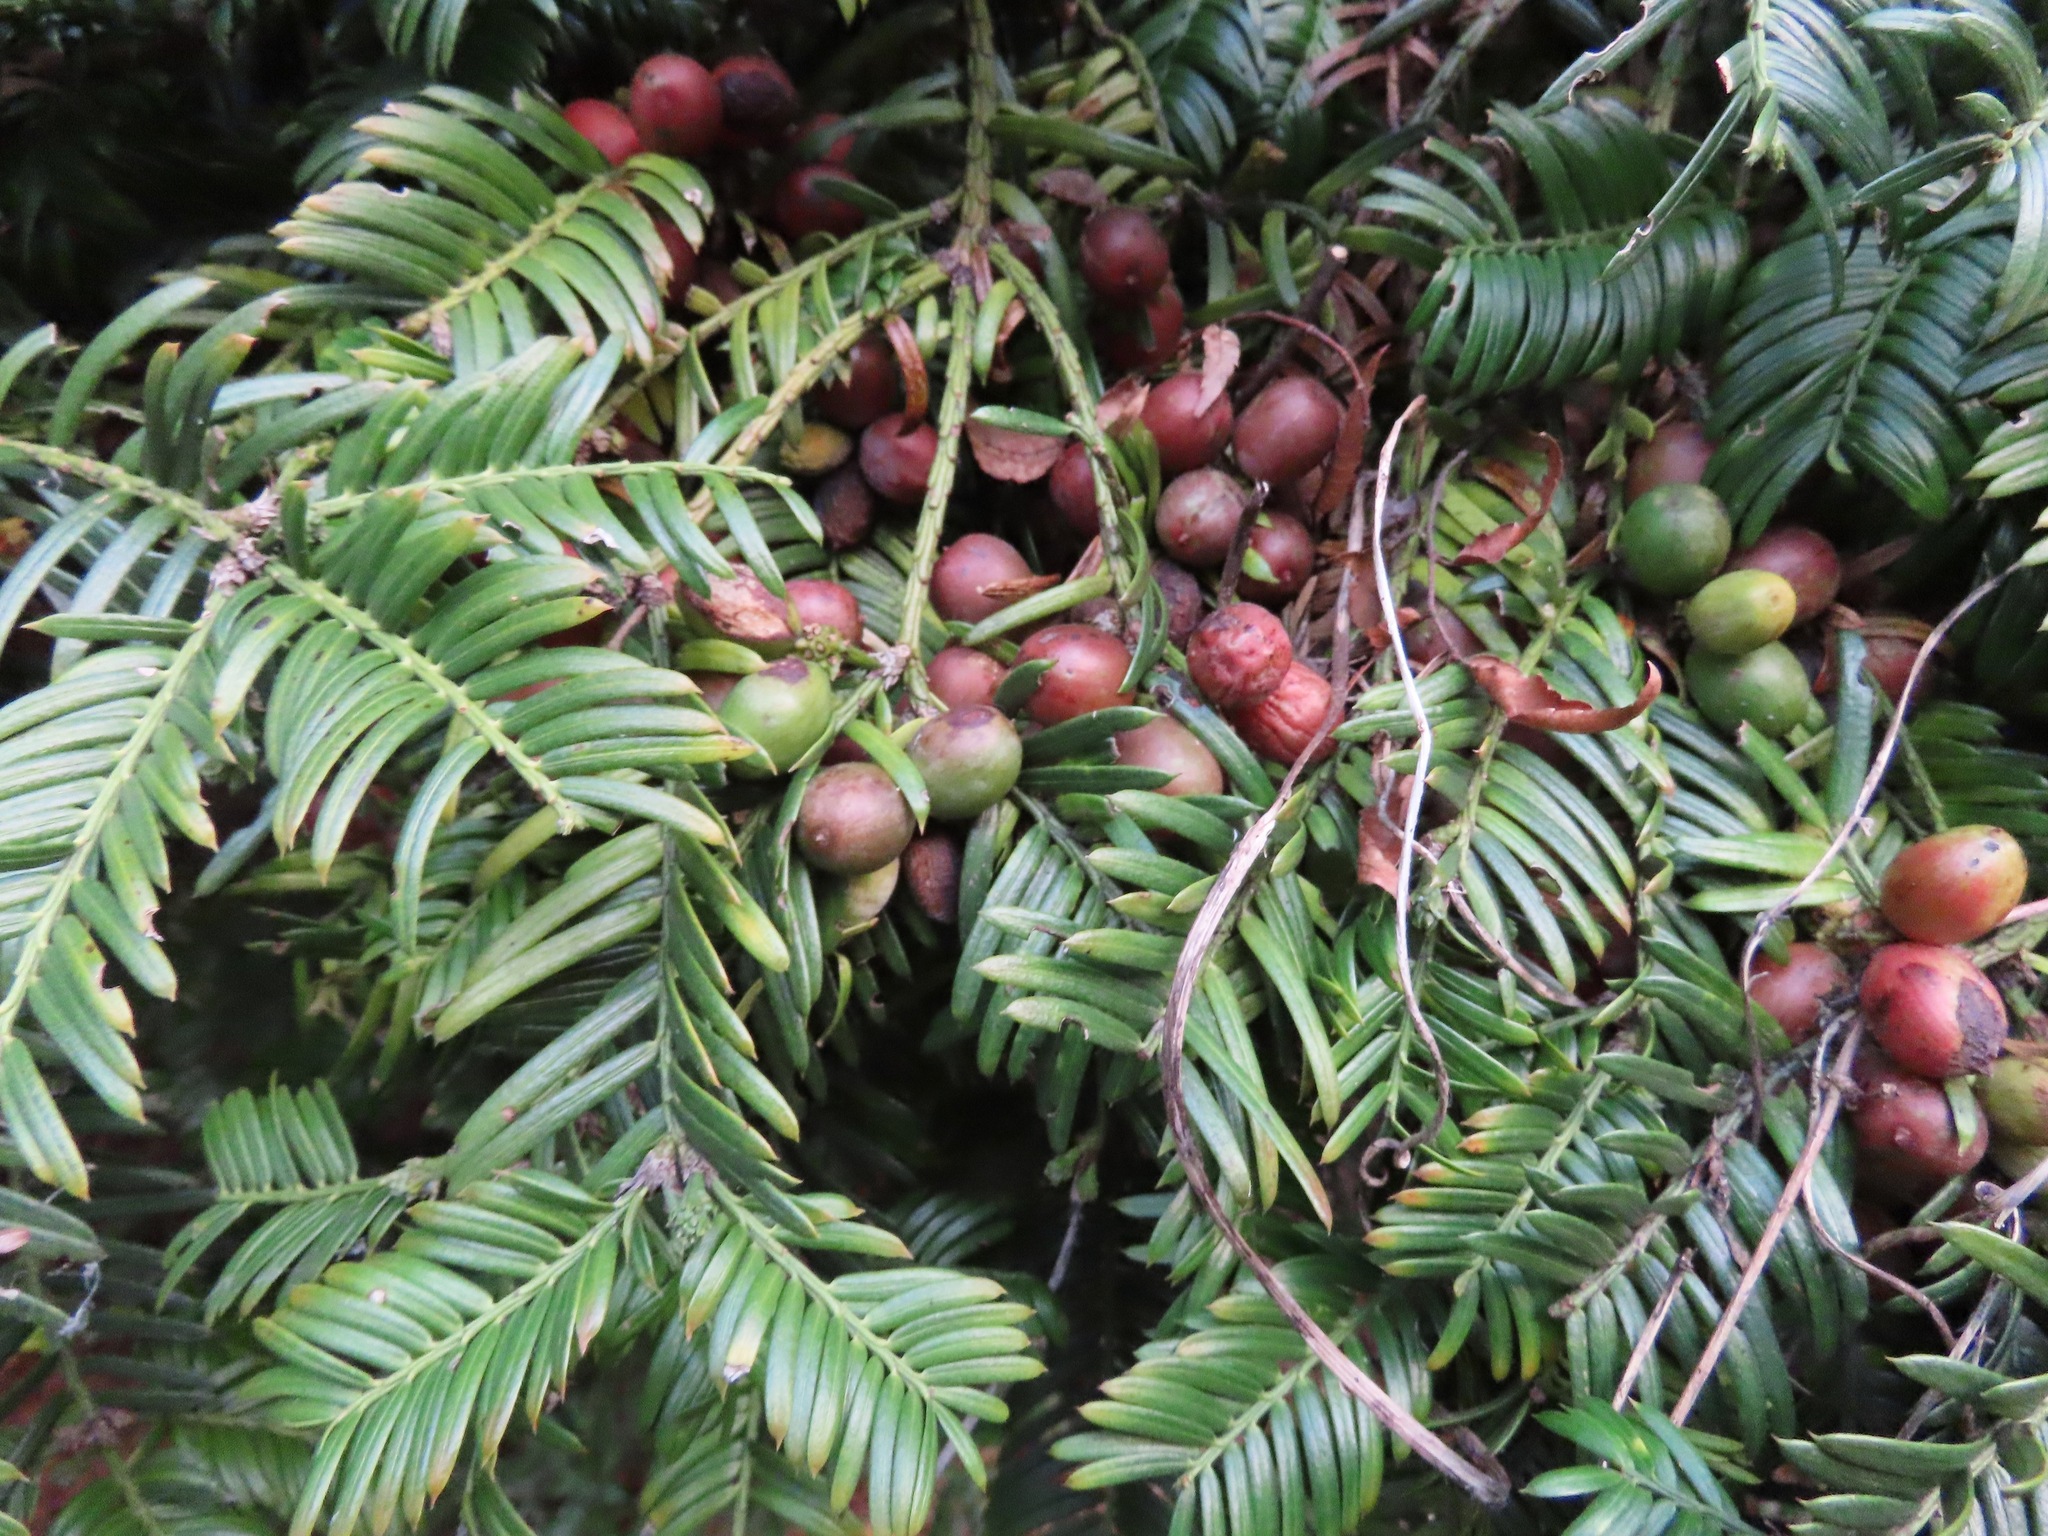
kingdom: Plantae
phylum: Tracheophyta
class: Pinopsida
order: Pinales
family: Cephalotaxaceae
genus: Cephalotaxus
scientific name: Cephalotaxus harringtonia
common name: Japanese plum-yew
